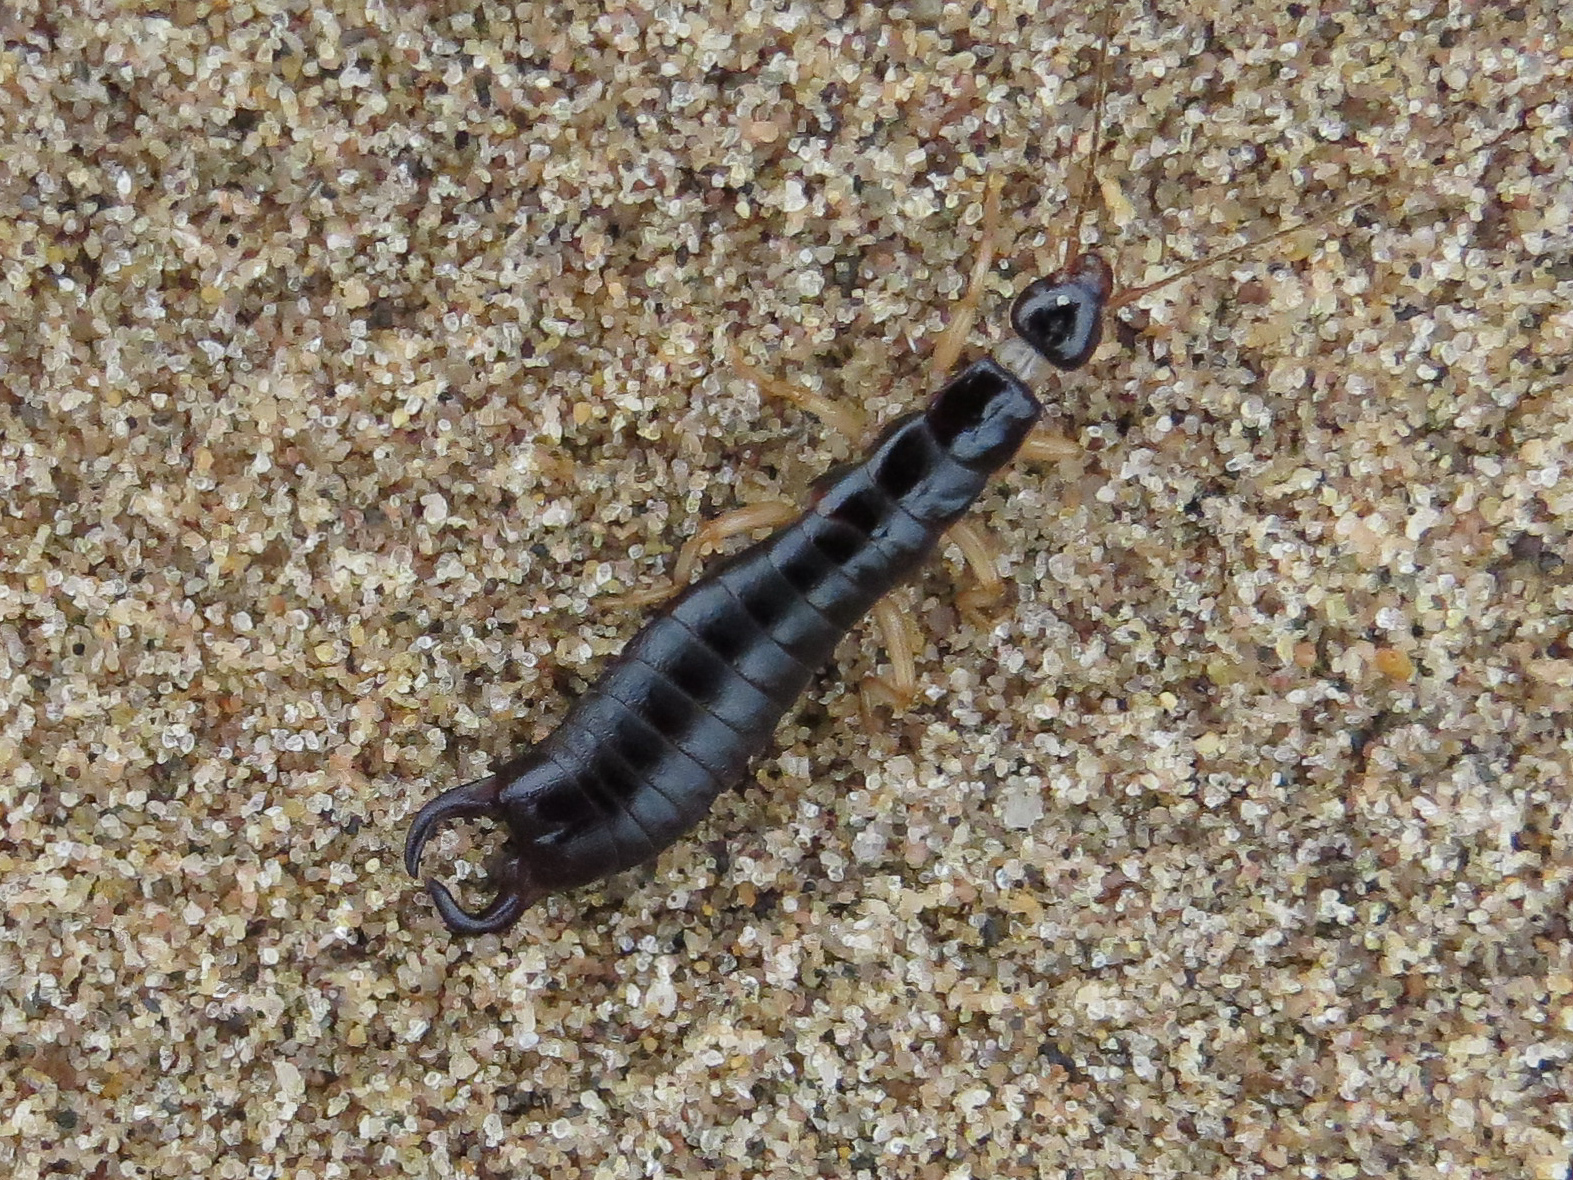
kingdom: Animalia
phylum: Arthropoda
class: Insecta
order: Dermaptera
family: Anisolabididae
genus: Anisolabis
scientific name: Anisolabis maritima
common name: Maritime earwig
